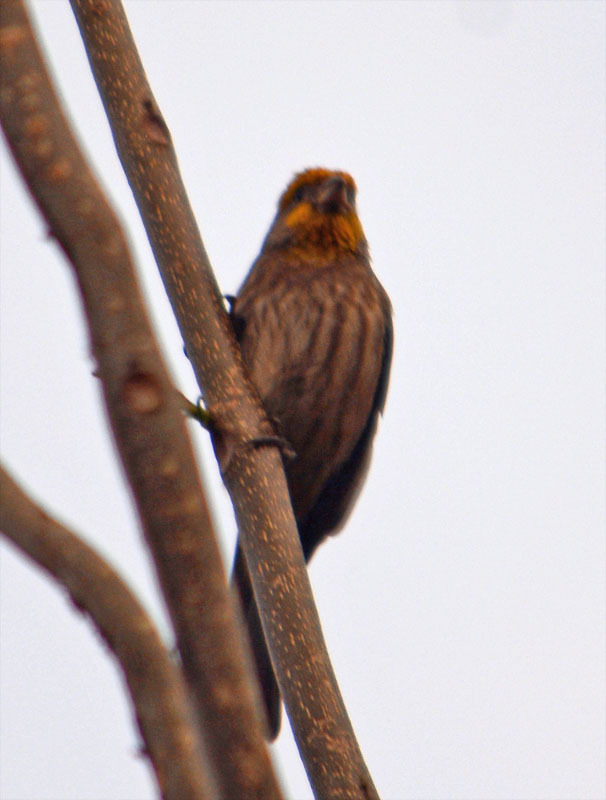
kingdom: Animalia
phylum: Chordata
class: Aves
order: Passeriformes
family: Fringillidae
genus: Haemorhous
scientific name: Haemorhous mexicanus
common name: House finch
